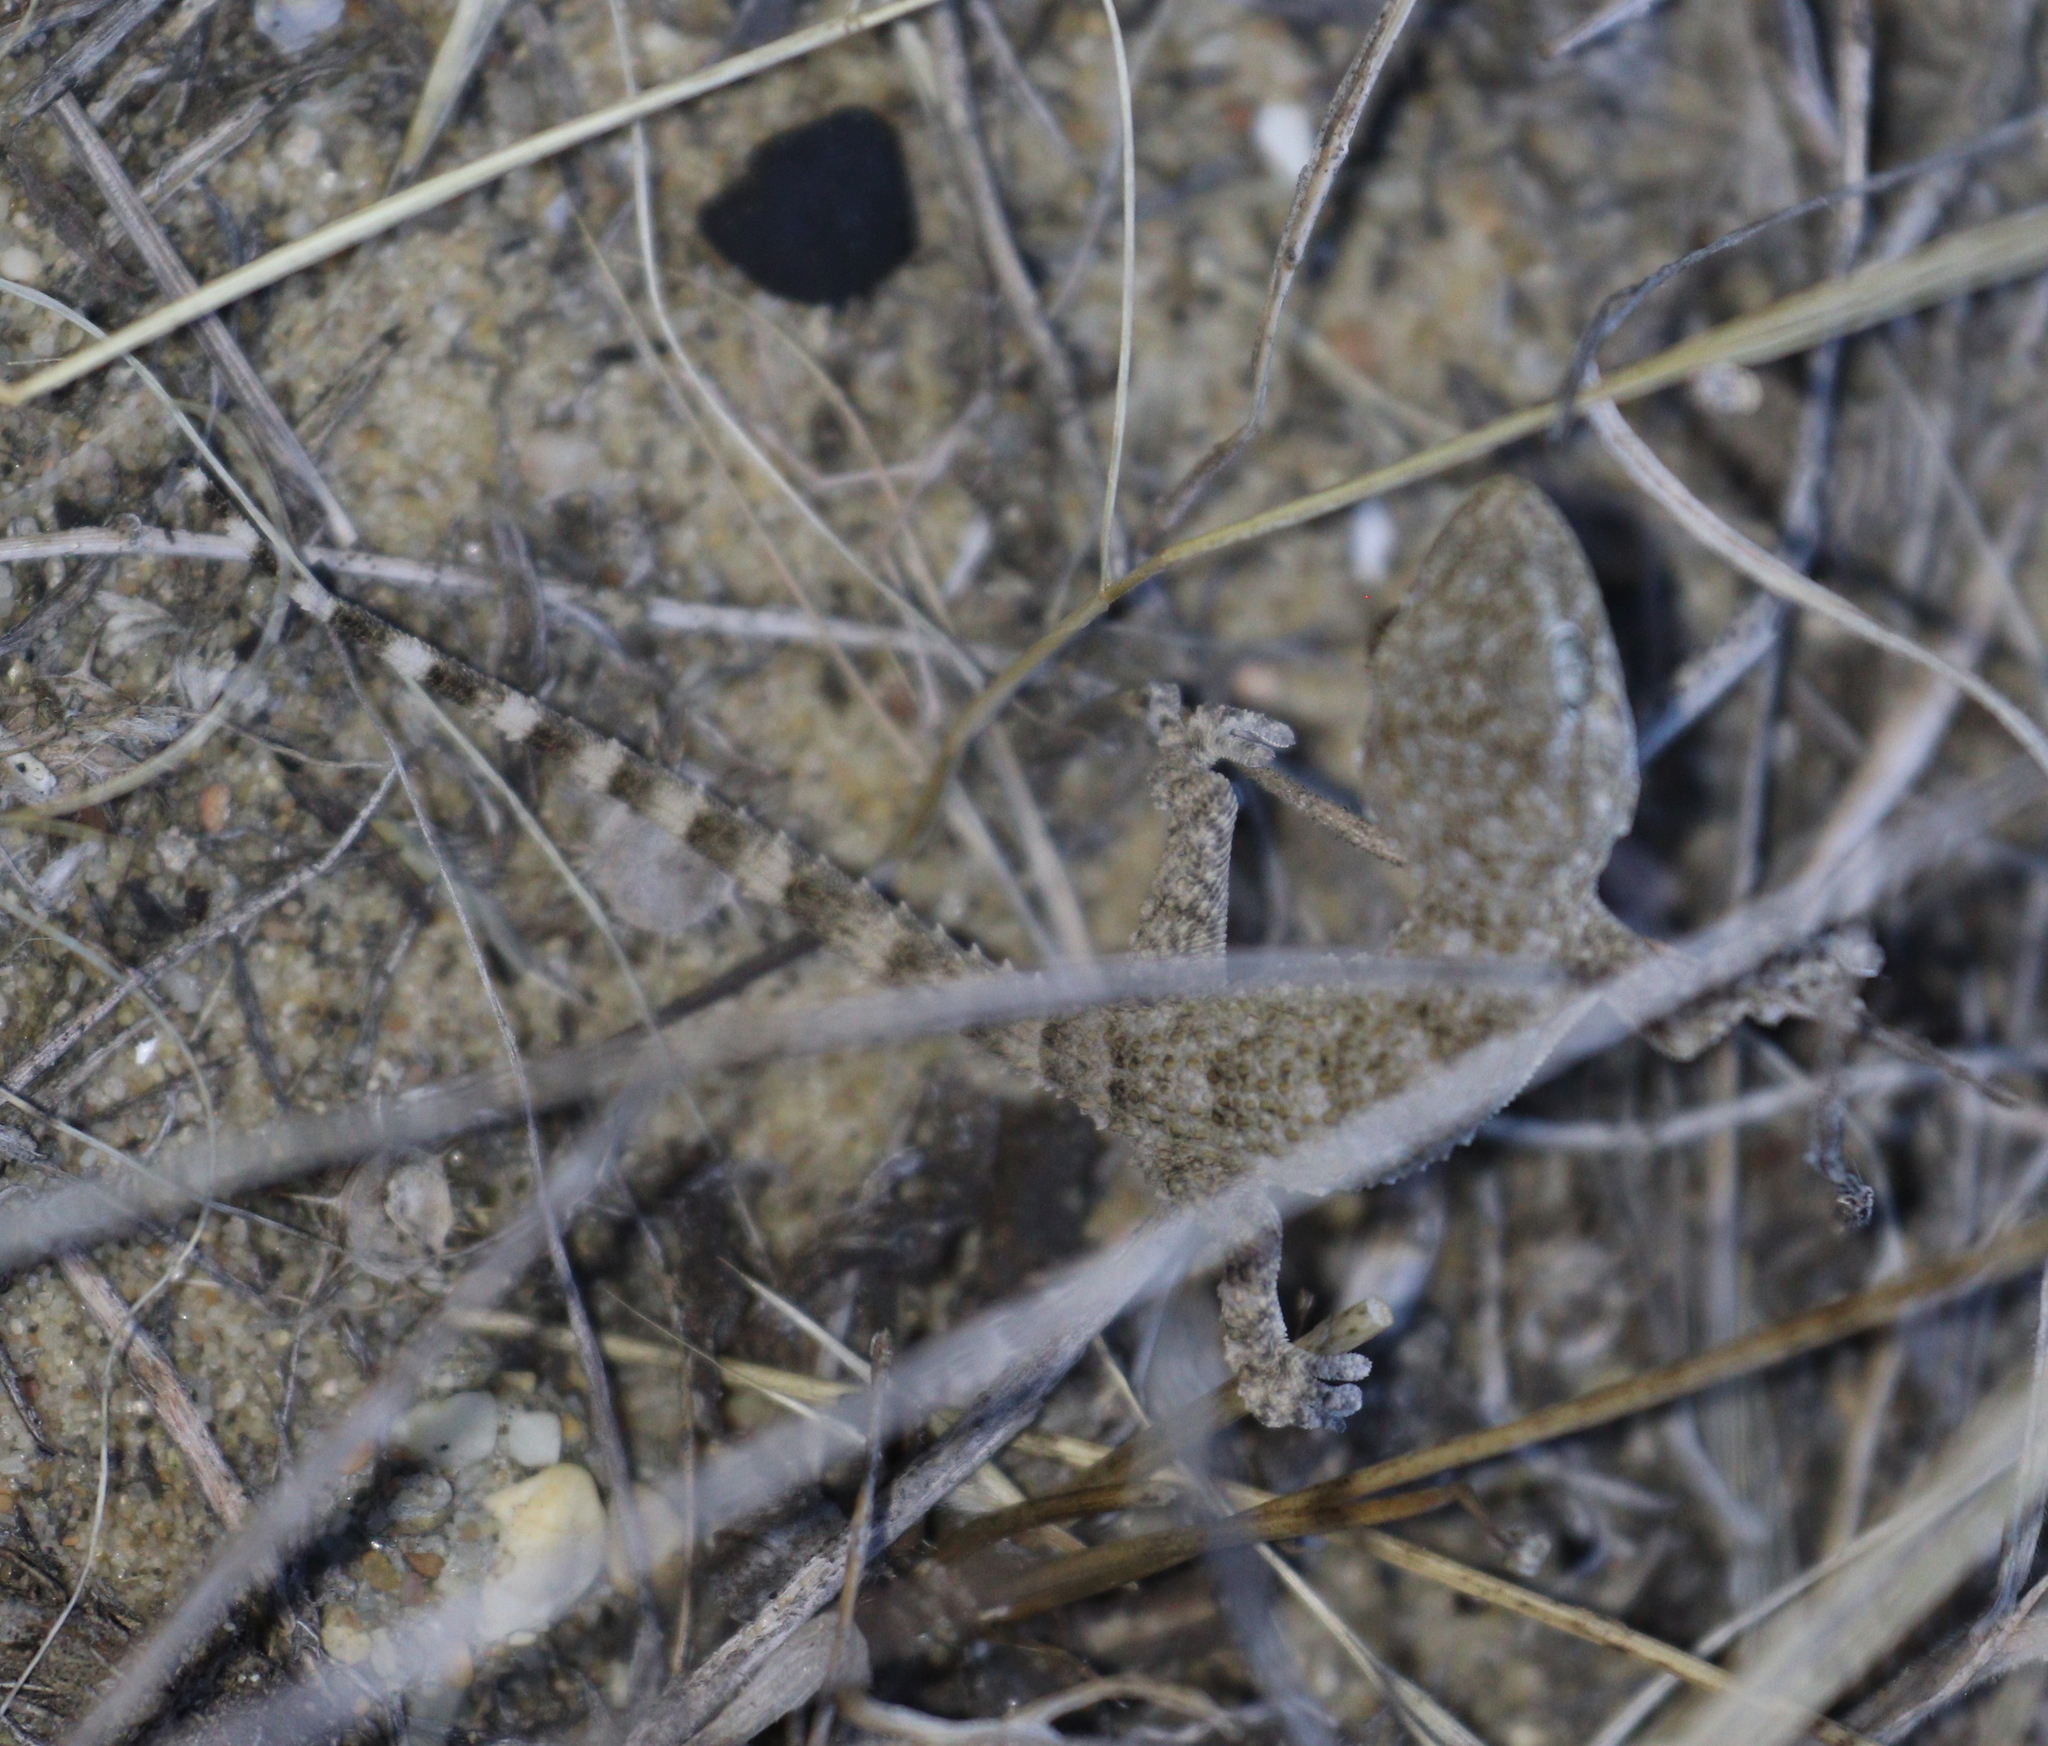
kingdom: Animalia
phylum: Chordata
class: Squamata
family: Phyllodactylidae
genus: Tarentola
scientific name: Tarentola mauritanica
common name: Moorish gecko
